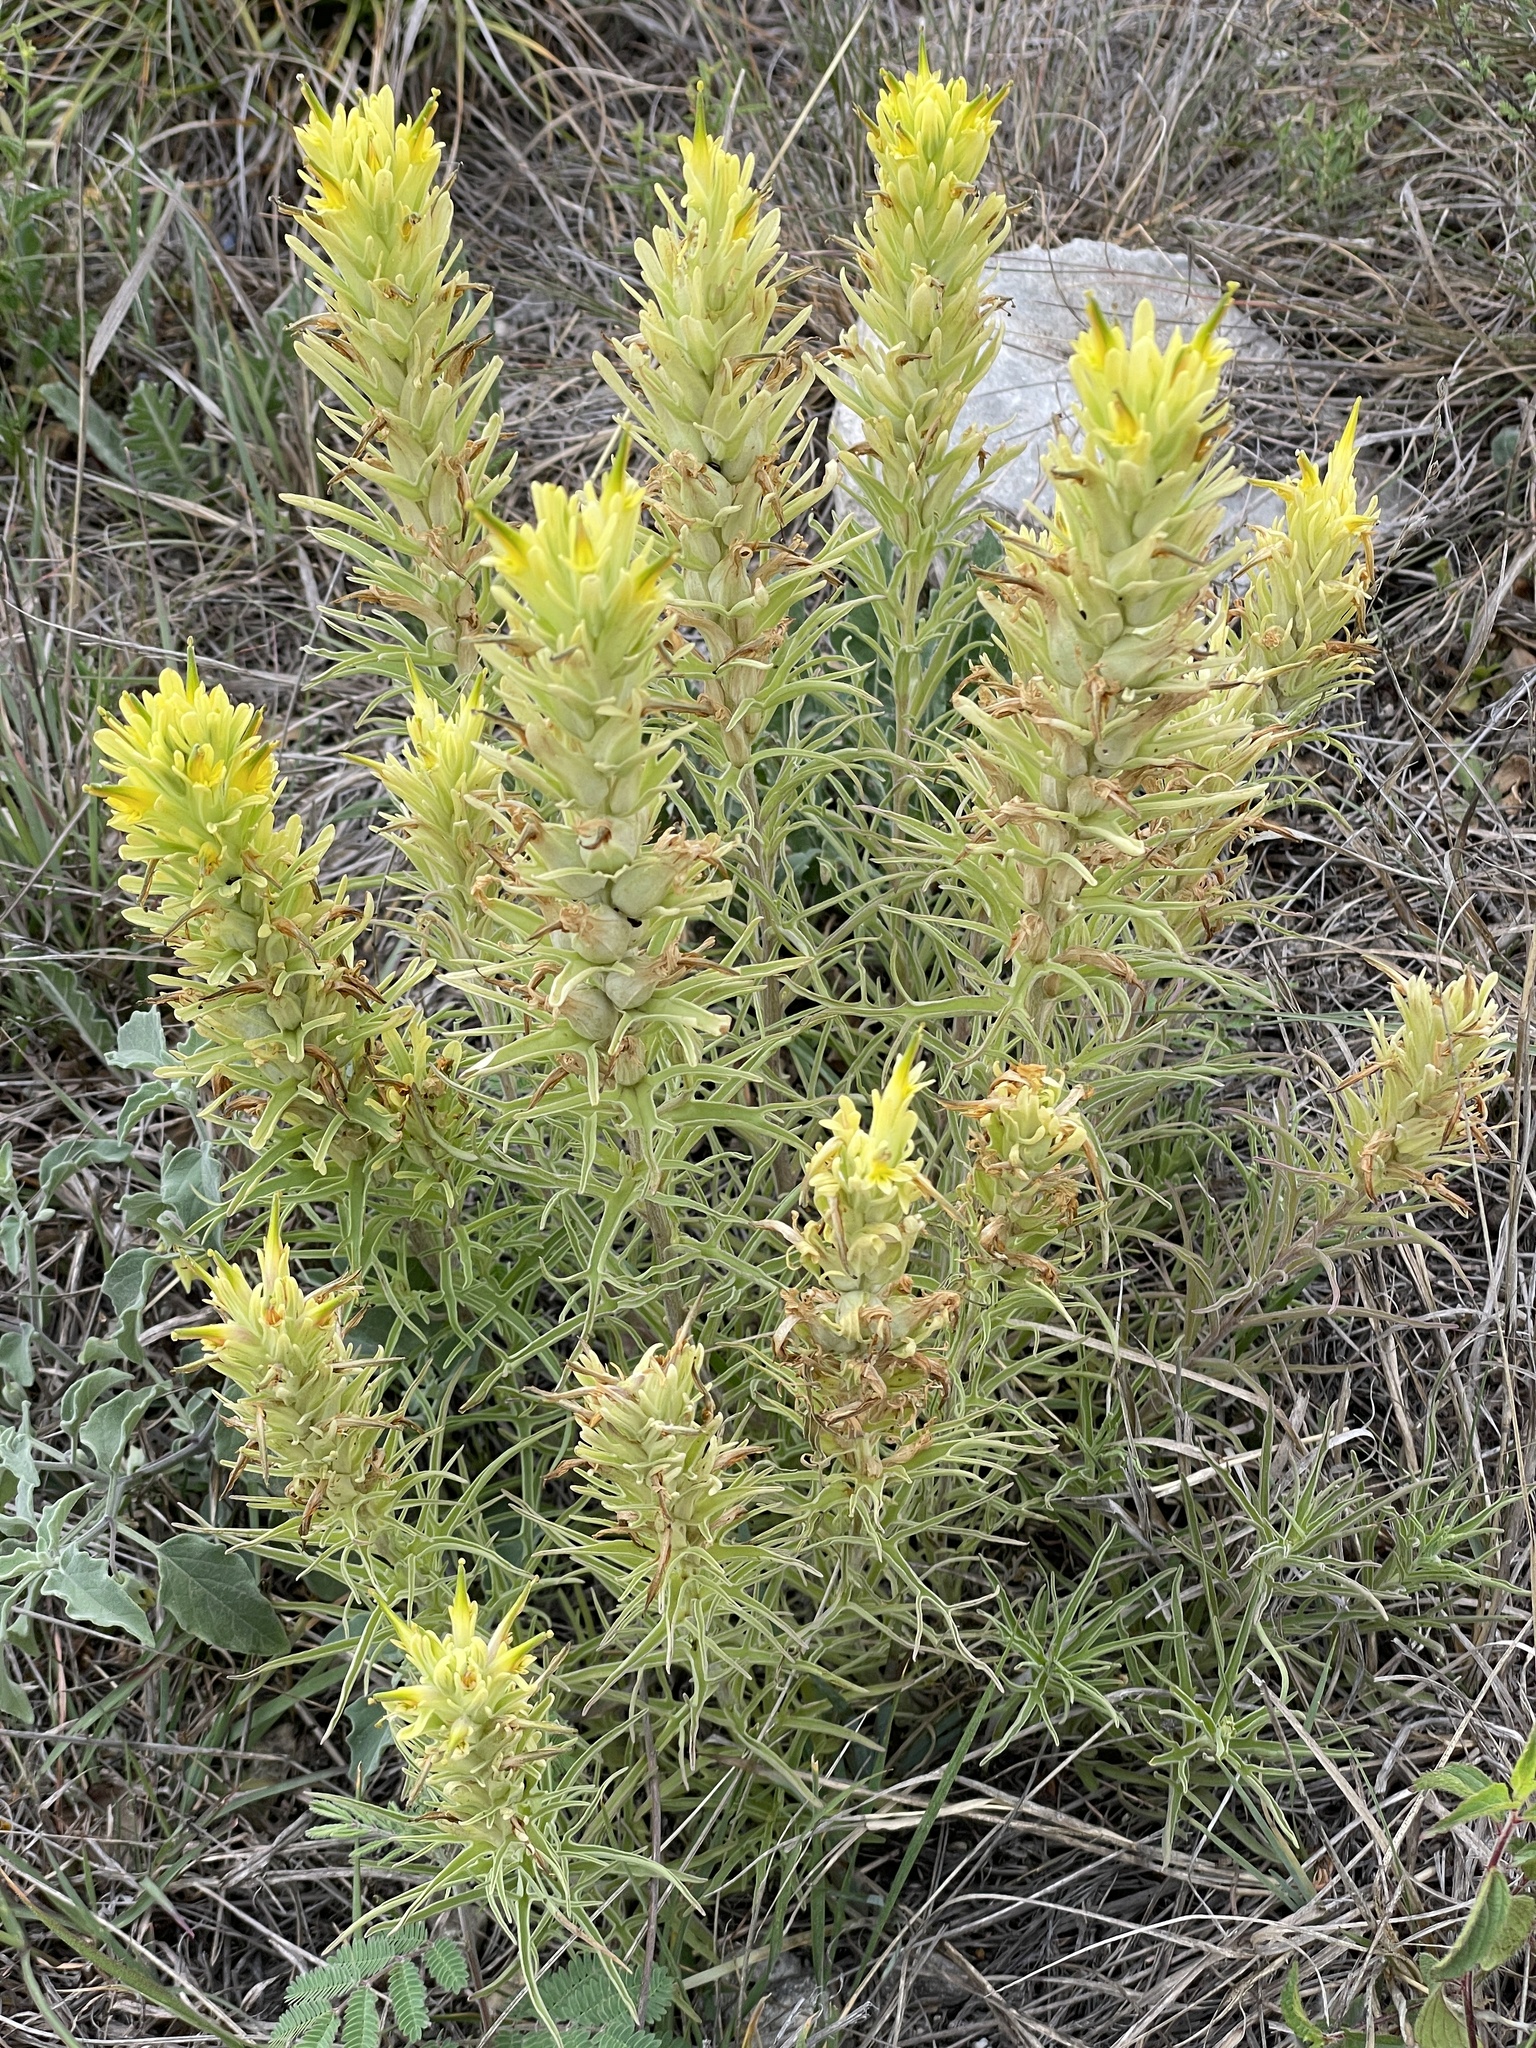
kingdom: Plantae
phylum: Tracheophyta
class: Magnoliopsida
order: Lamiales
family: Orobanchaceae
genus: Castilleja
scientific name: Castilleja citrina
